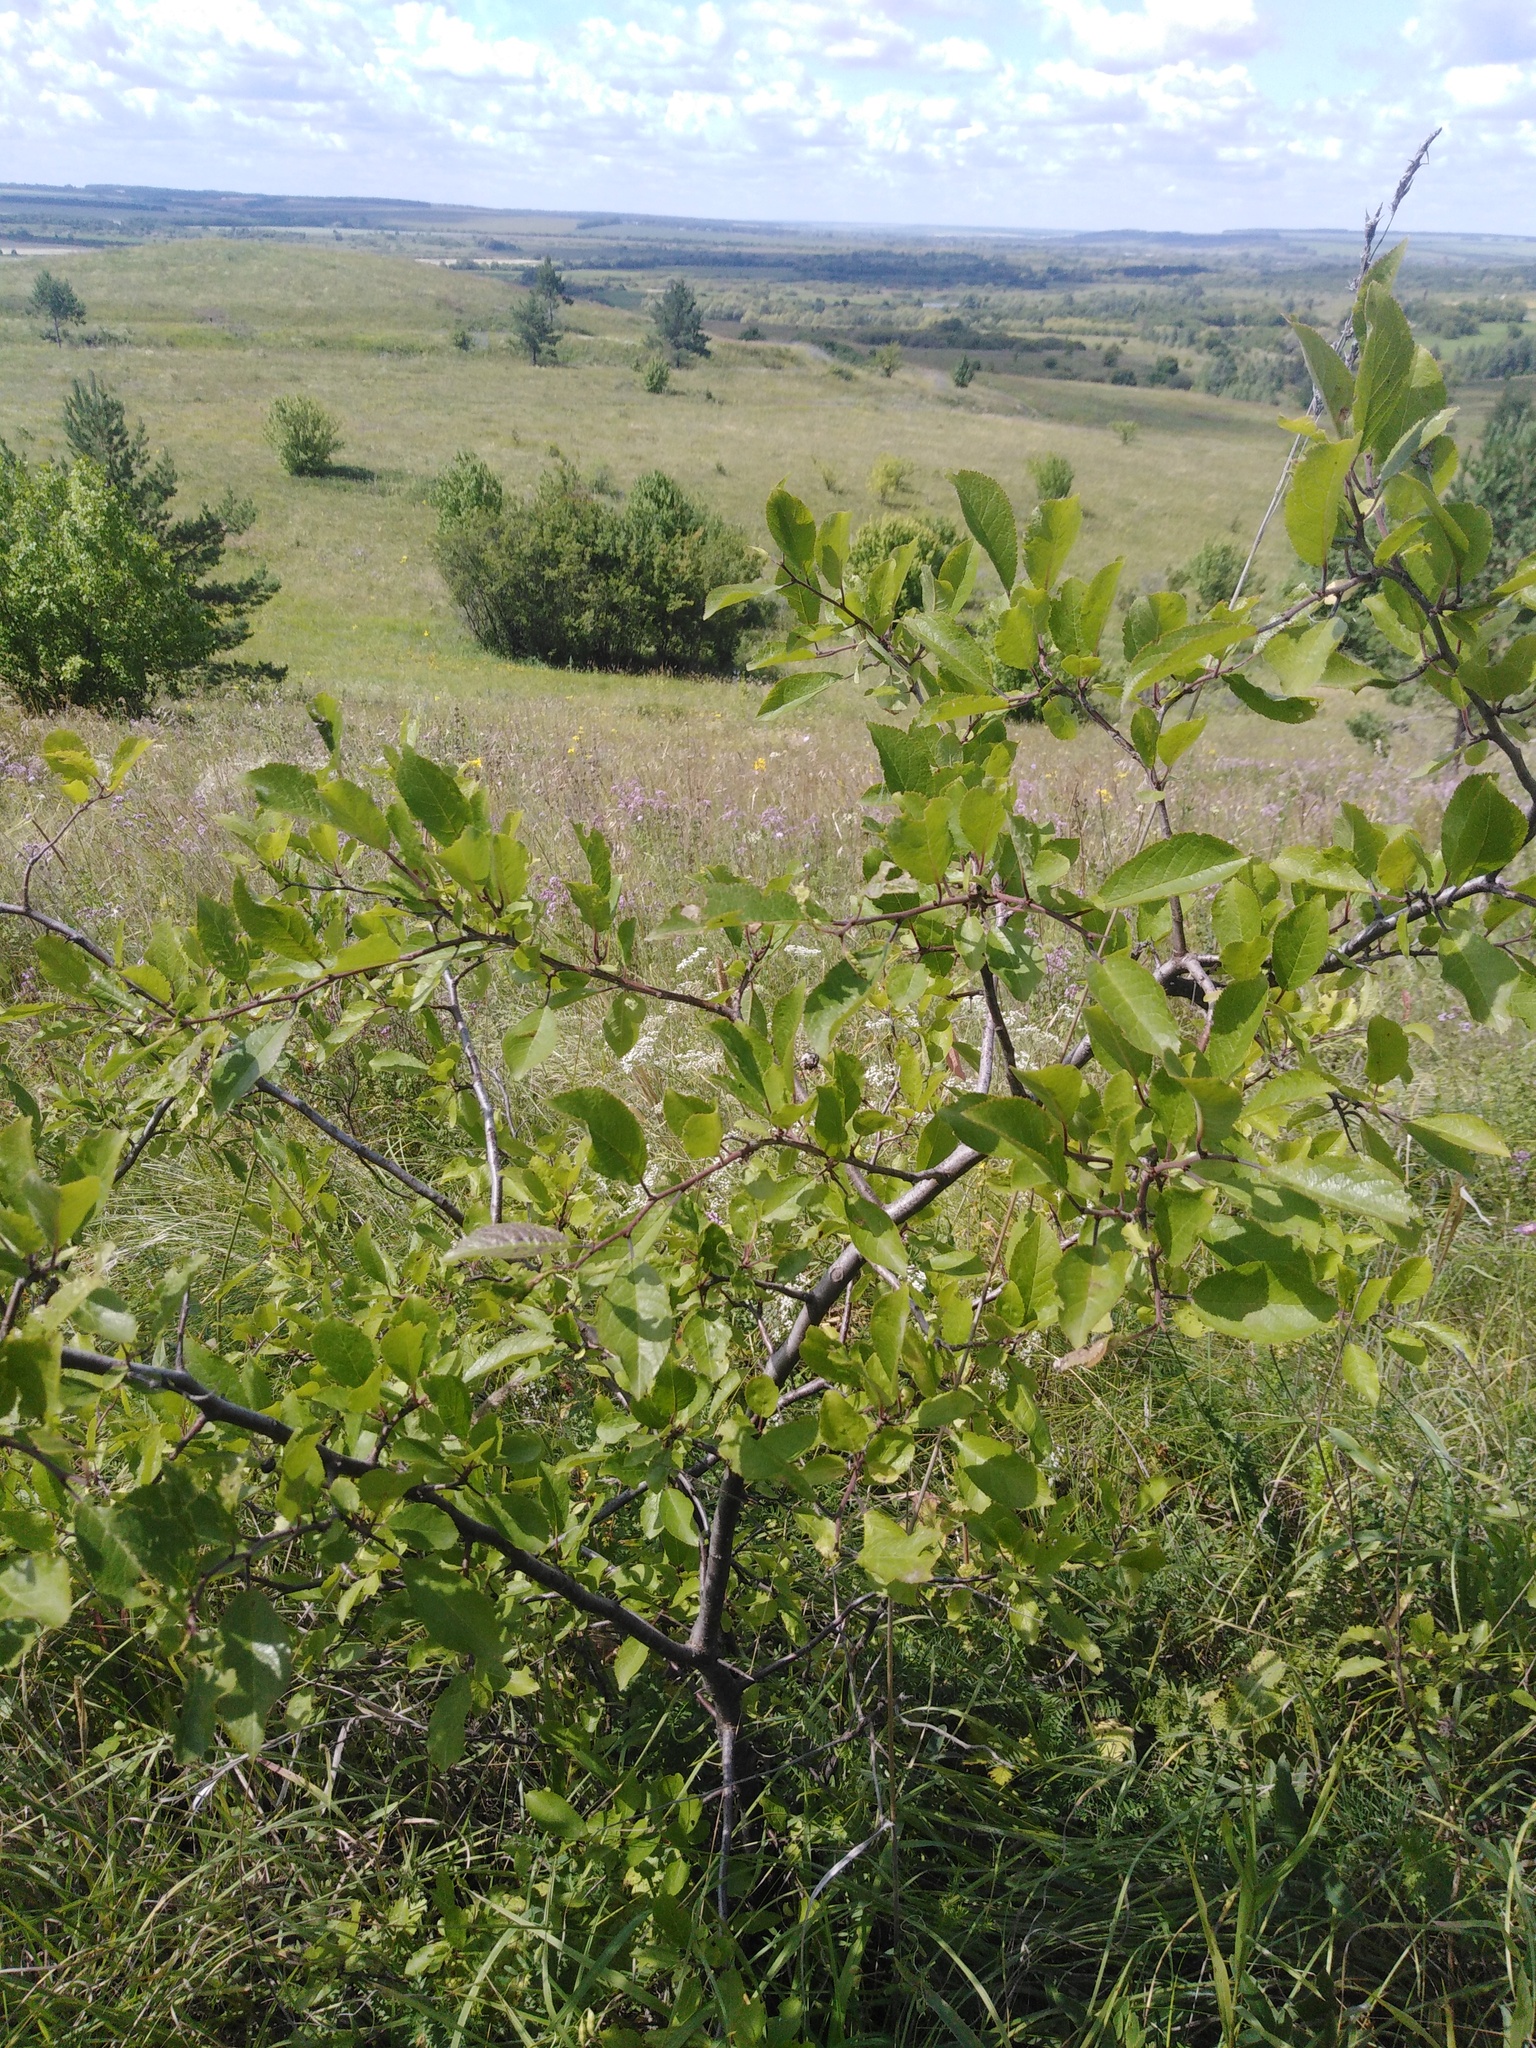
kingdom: Plantae
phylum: Tracheophyta
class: Magnoliopsida
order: Rosales
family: Rosaceae
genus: Prunus
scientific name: Prunus spinosa
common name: Blackthorn
